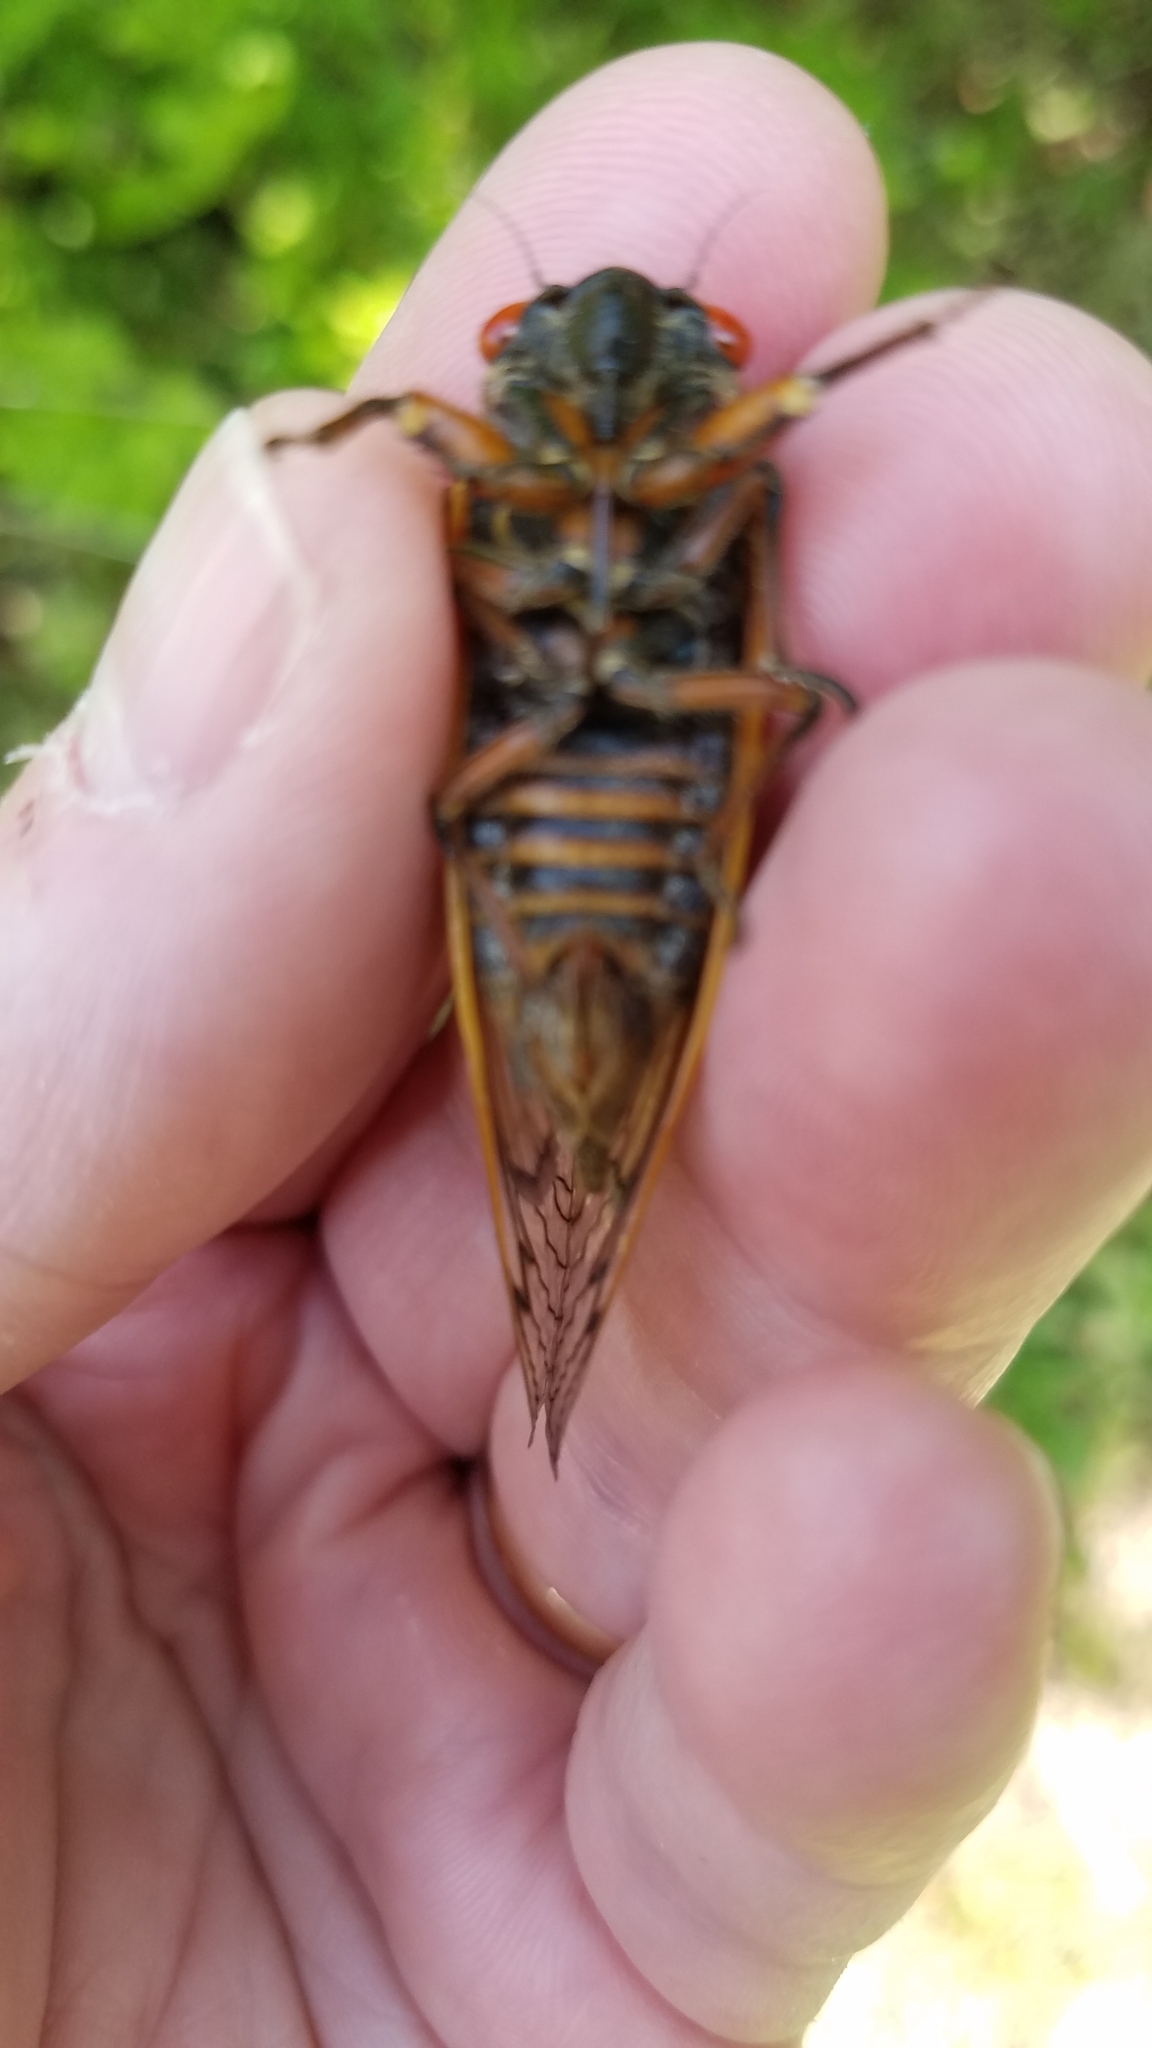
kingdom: Animalia
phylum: Arthropoda
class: Insecta
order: Hemiptera
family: Cicadidae
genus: Magicicada
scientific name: Magicicada septendecim
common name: Periodical cicada
